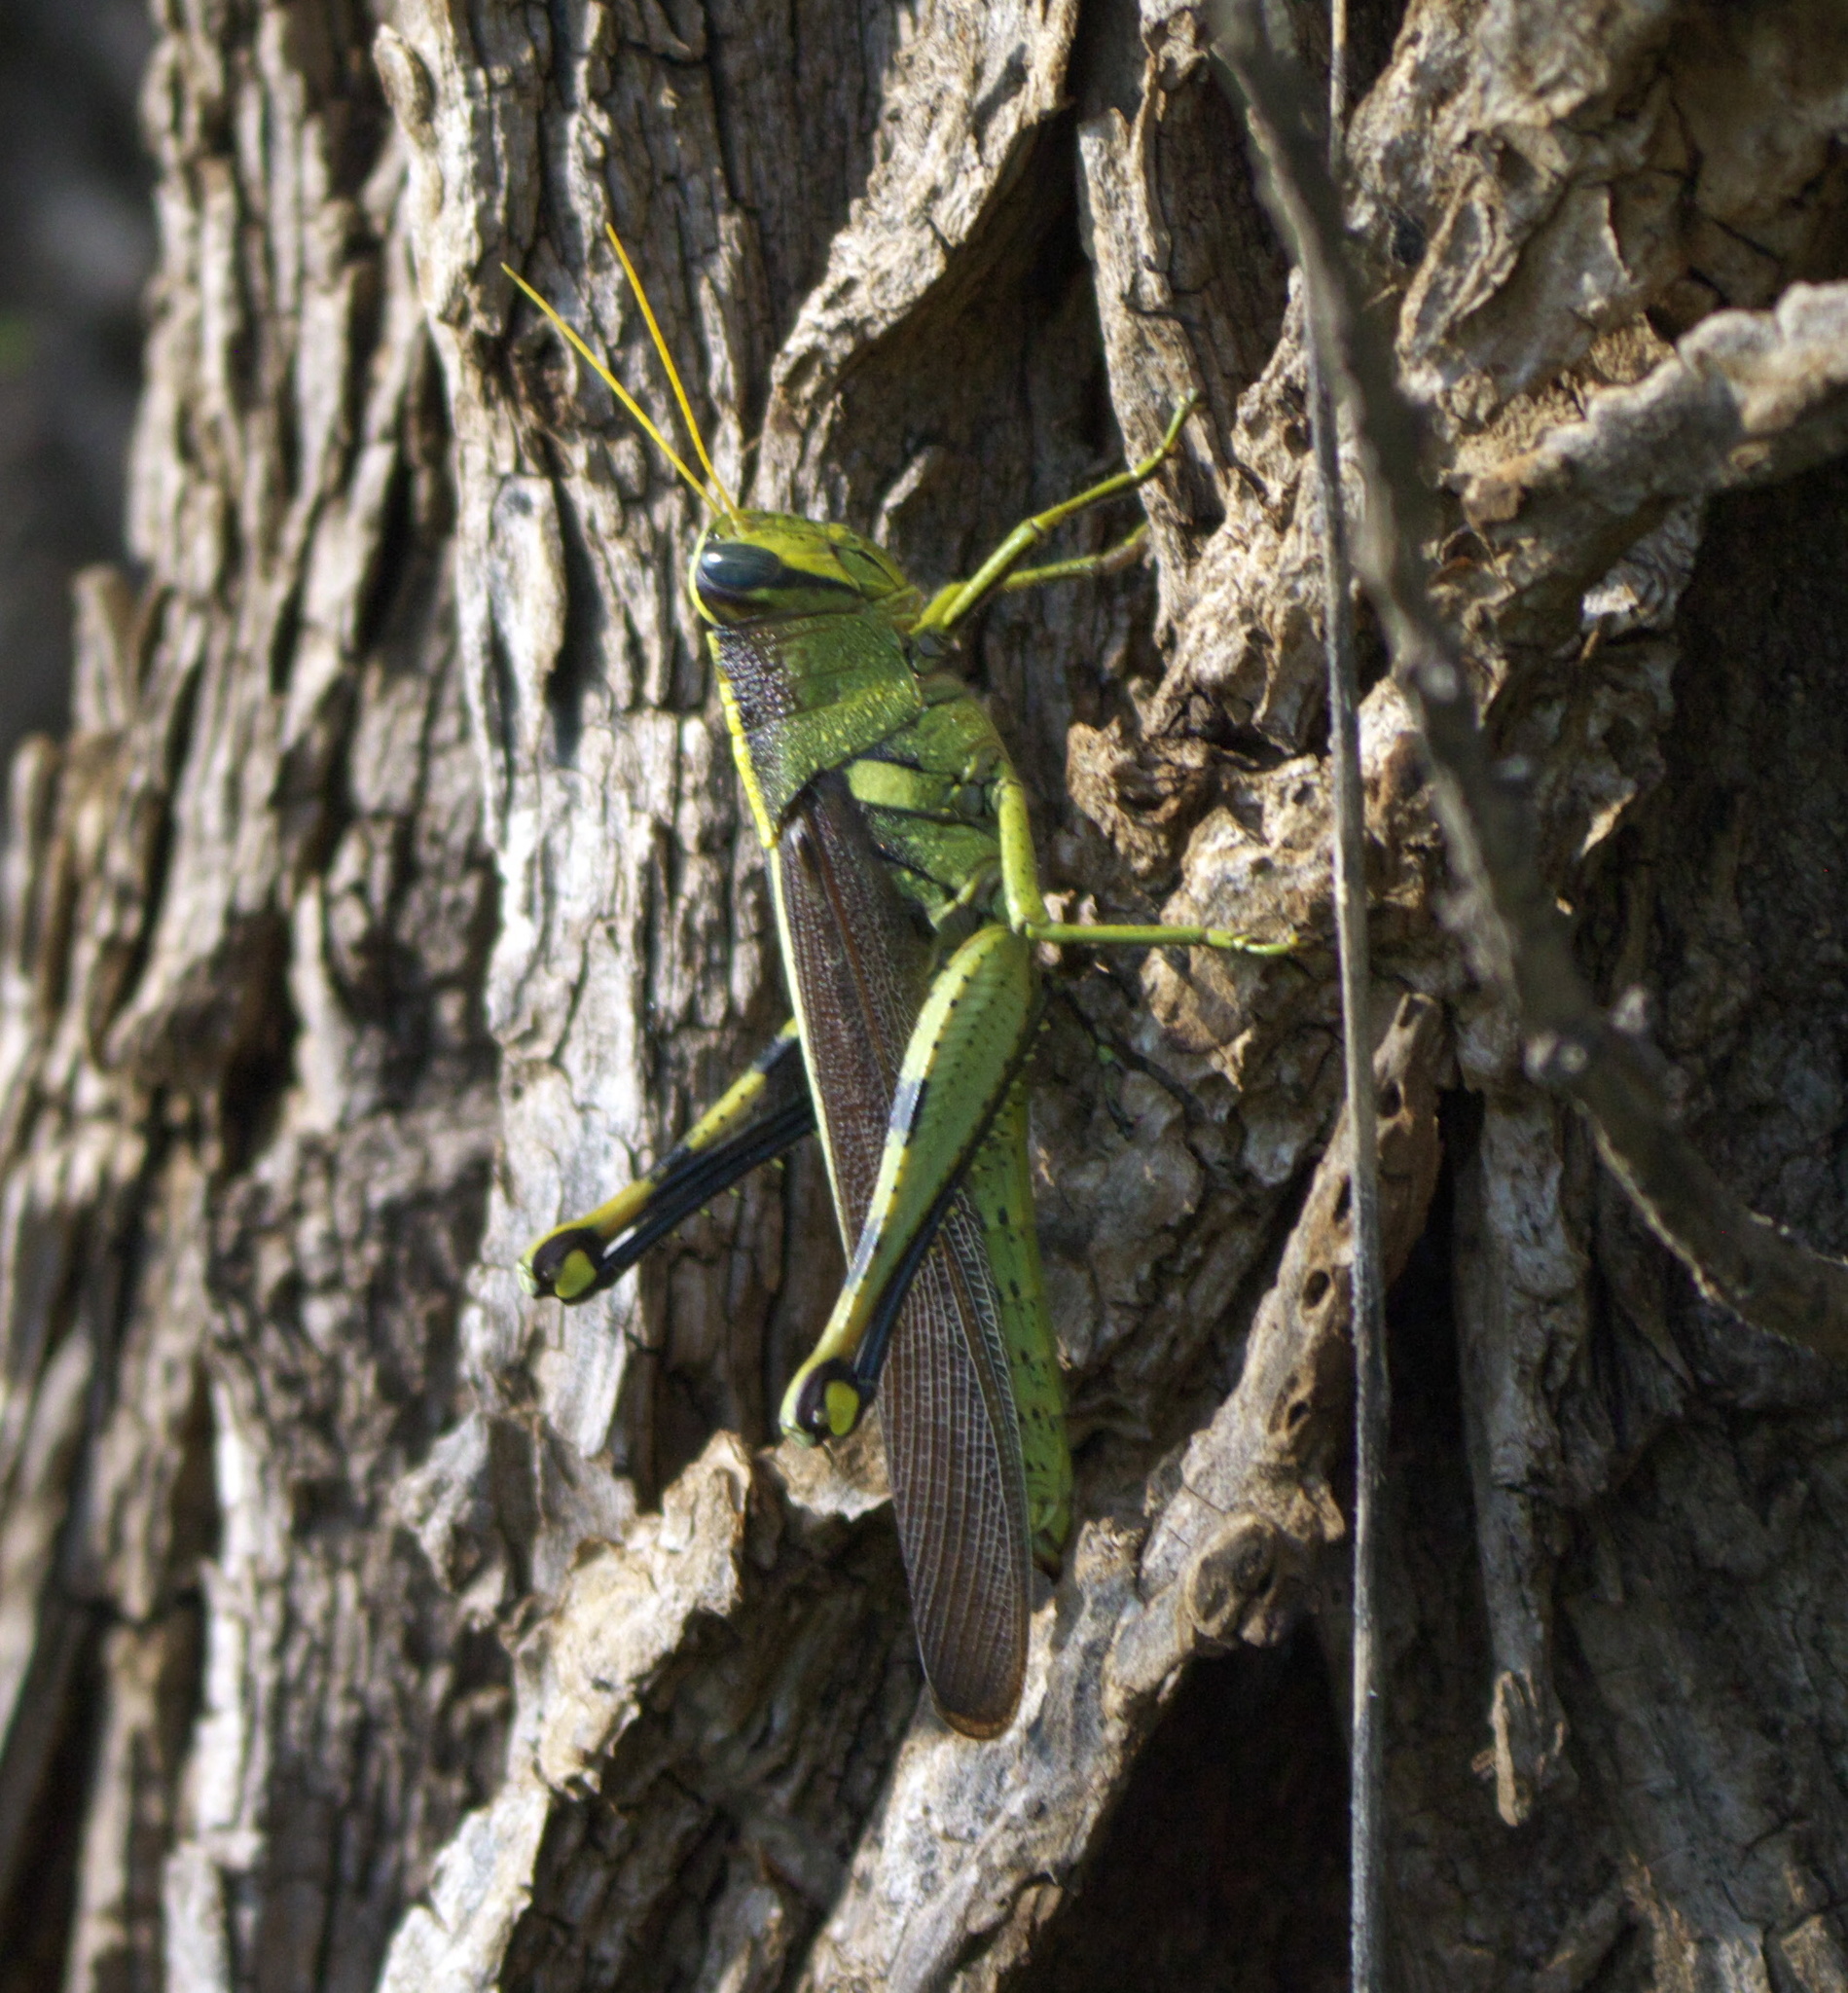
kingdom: Animalia
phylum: Arthropoda
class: Insecta
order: Orthoptera
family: Acrididae
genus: Schistocerca
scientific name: Schistocerca obscura
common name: Obscure bird grasshopper
